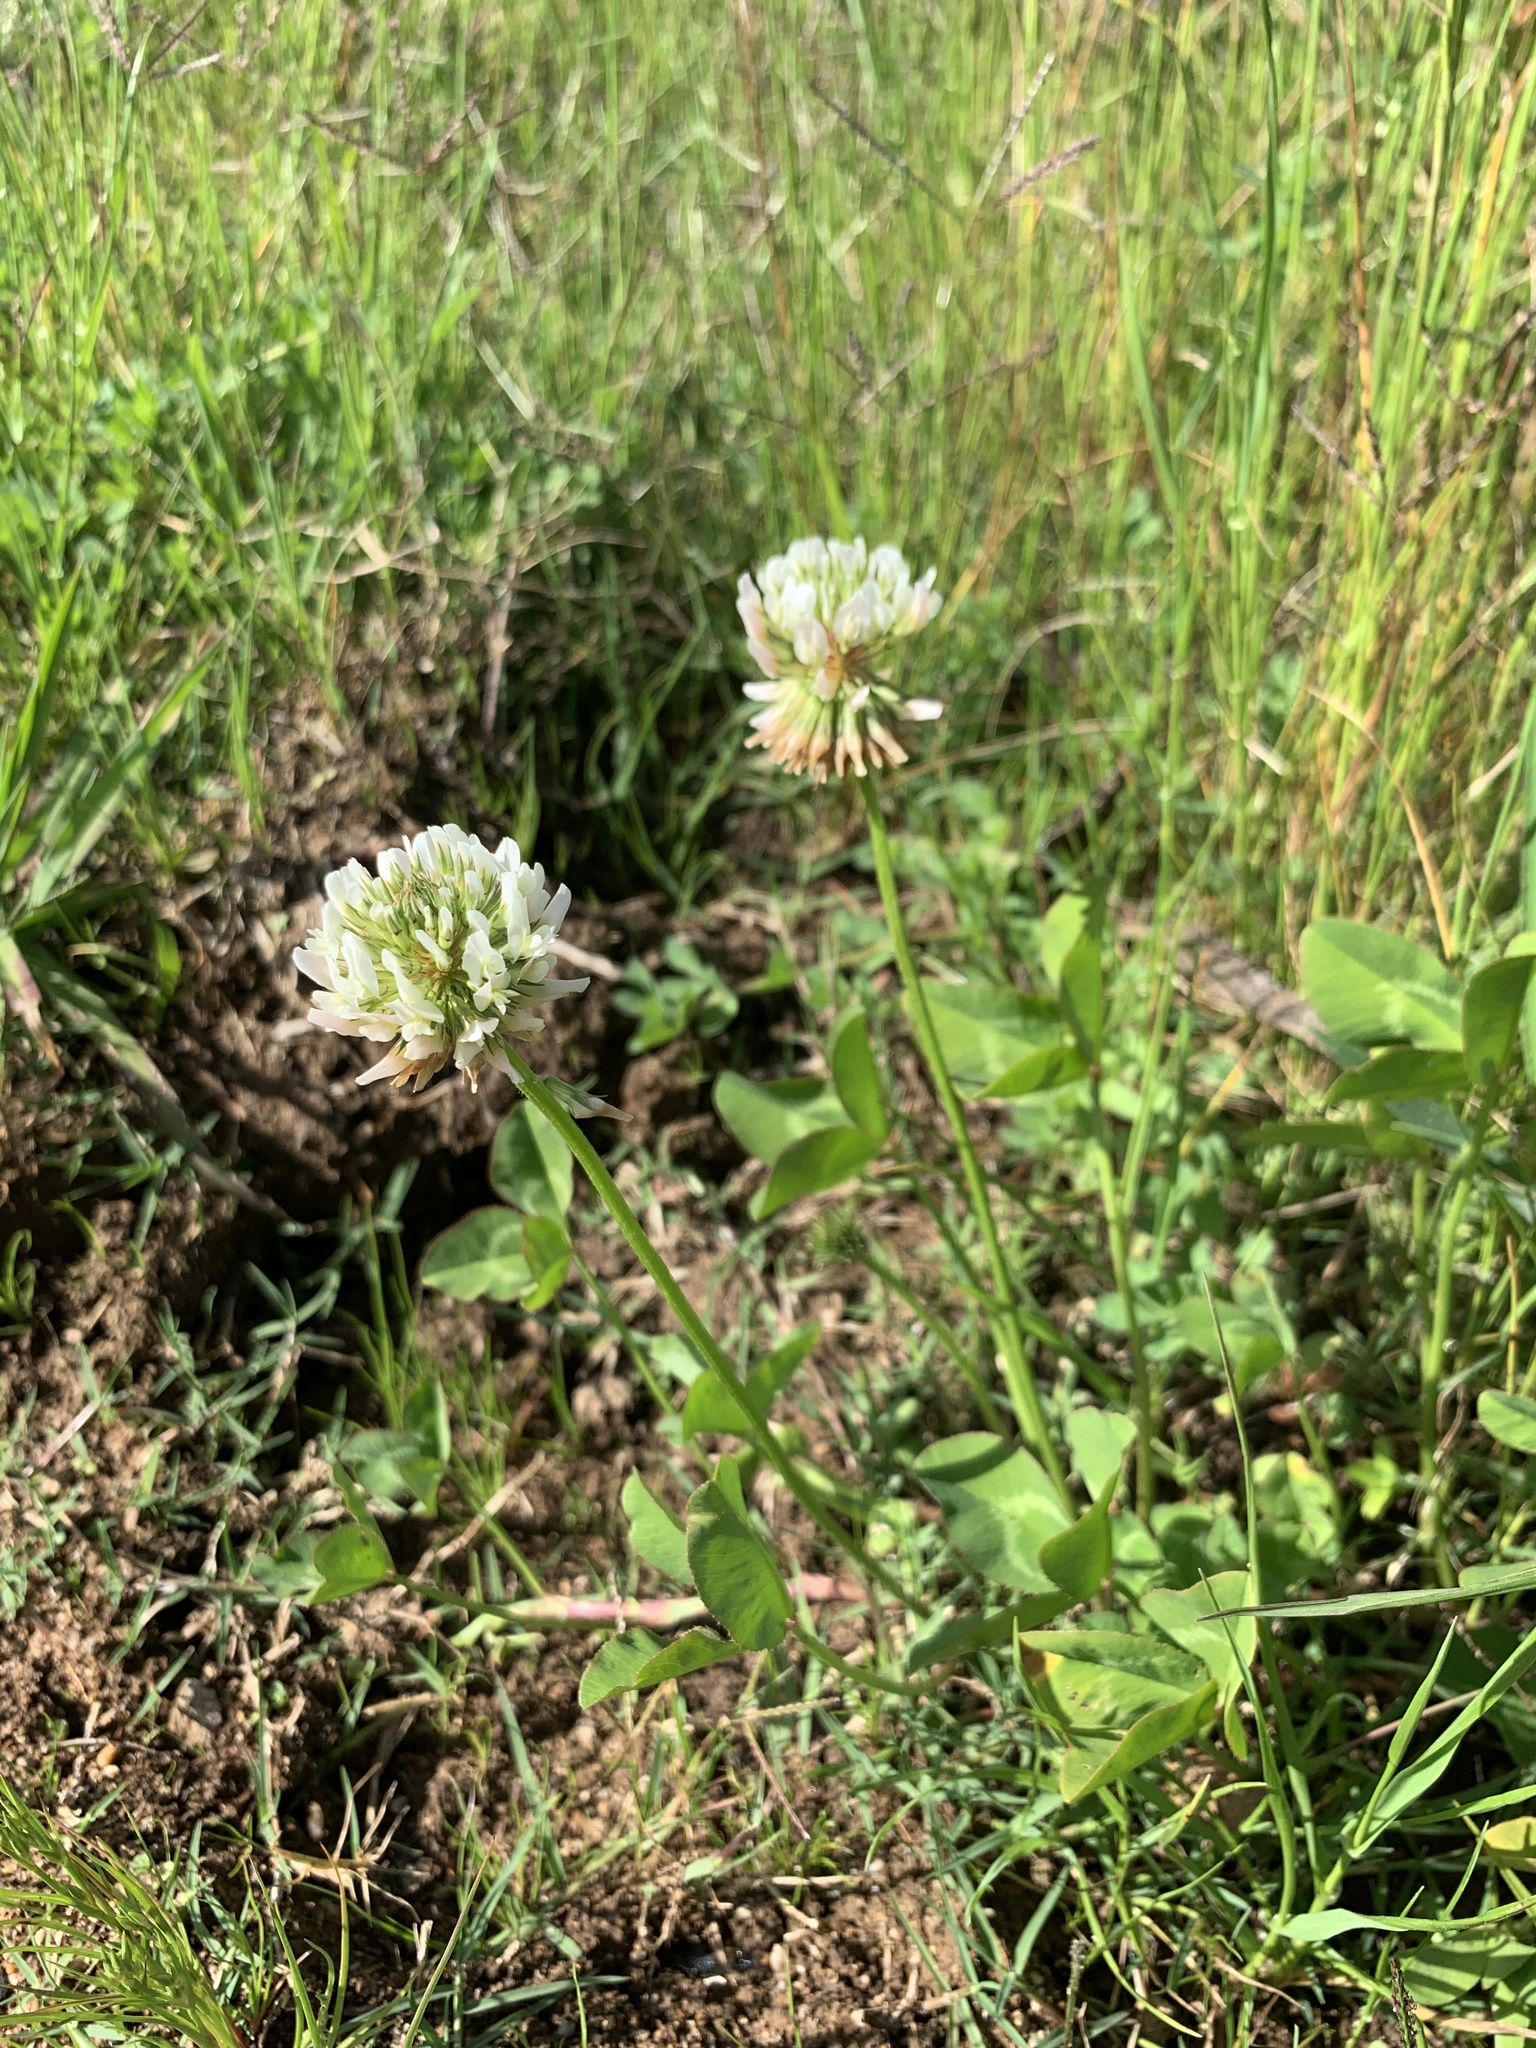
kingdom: Plantae
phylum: Tracheophyta
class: Magnoliopsida
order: Fabales
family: Fabaceae
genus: Trifolium
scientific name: Trifolium repens
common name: White clover
